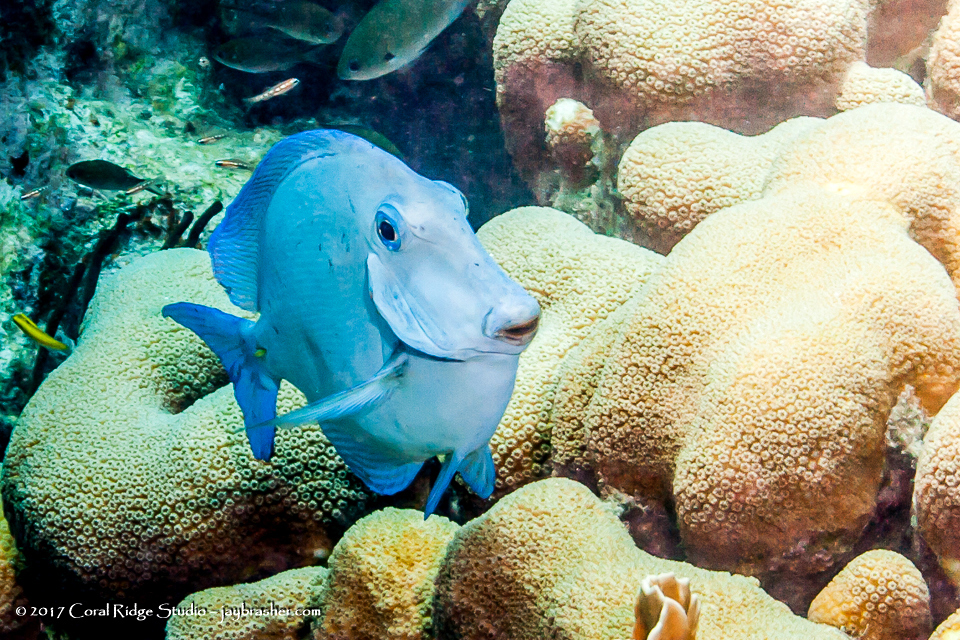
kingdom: Animalia
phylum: Chordata
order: Perciformes
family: Acanthuridae
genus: Acanthurus
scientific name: Acanthurus coeruleus
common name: Blue tang
